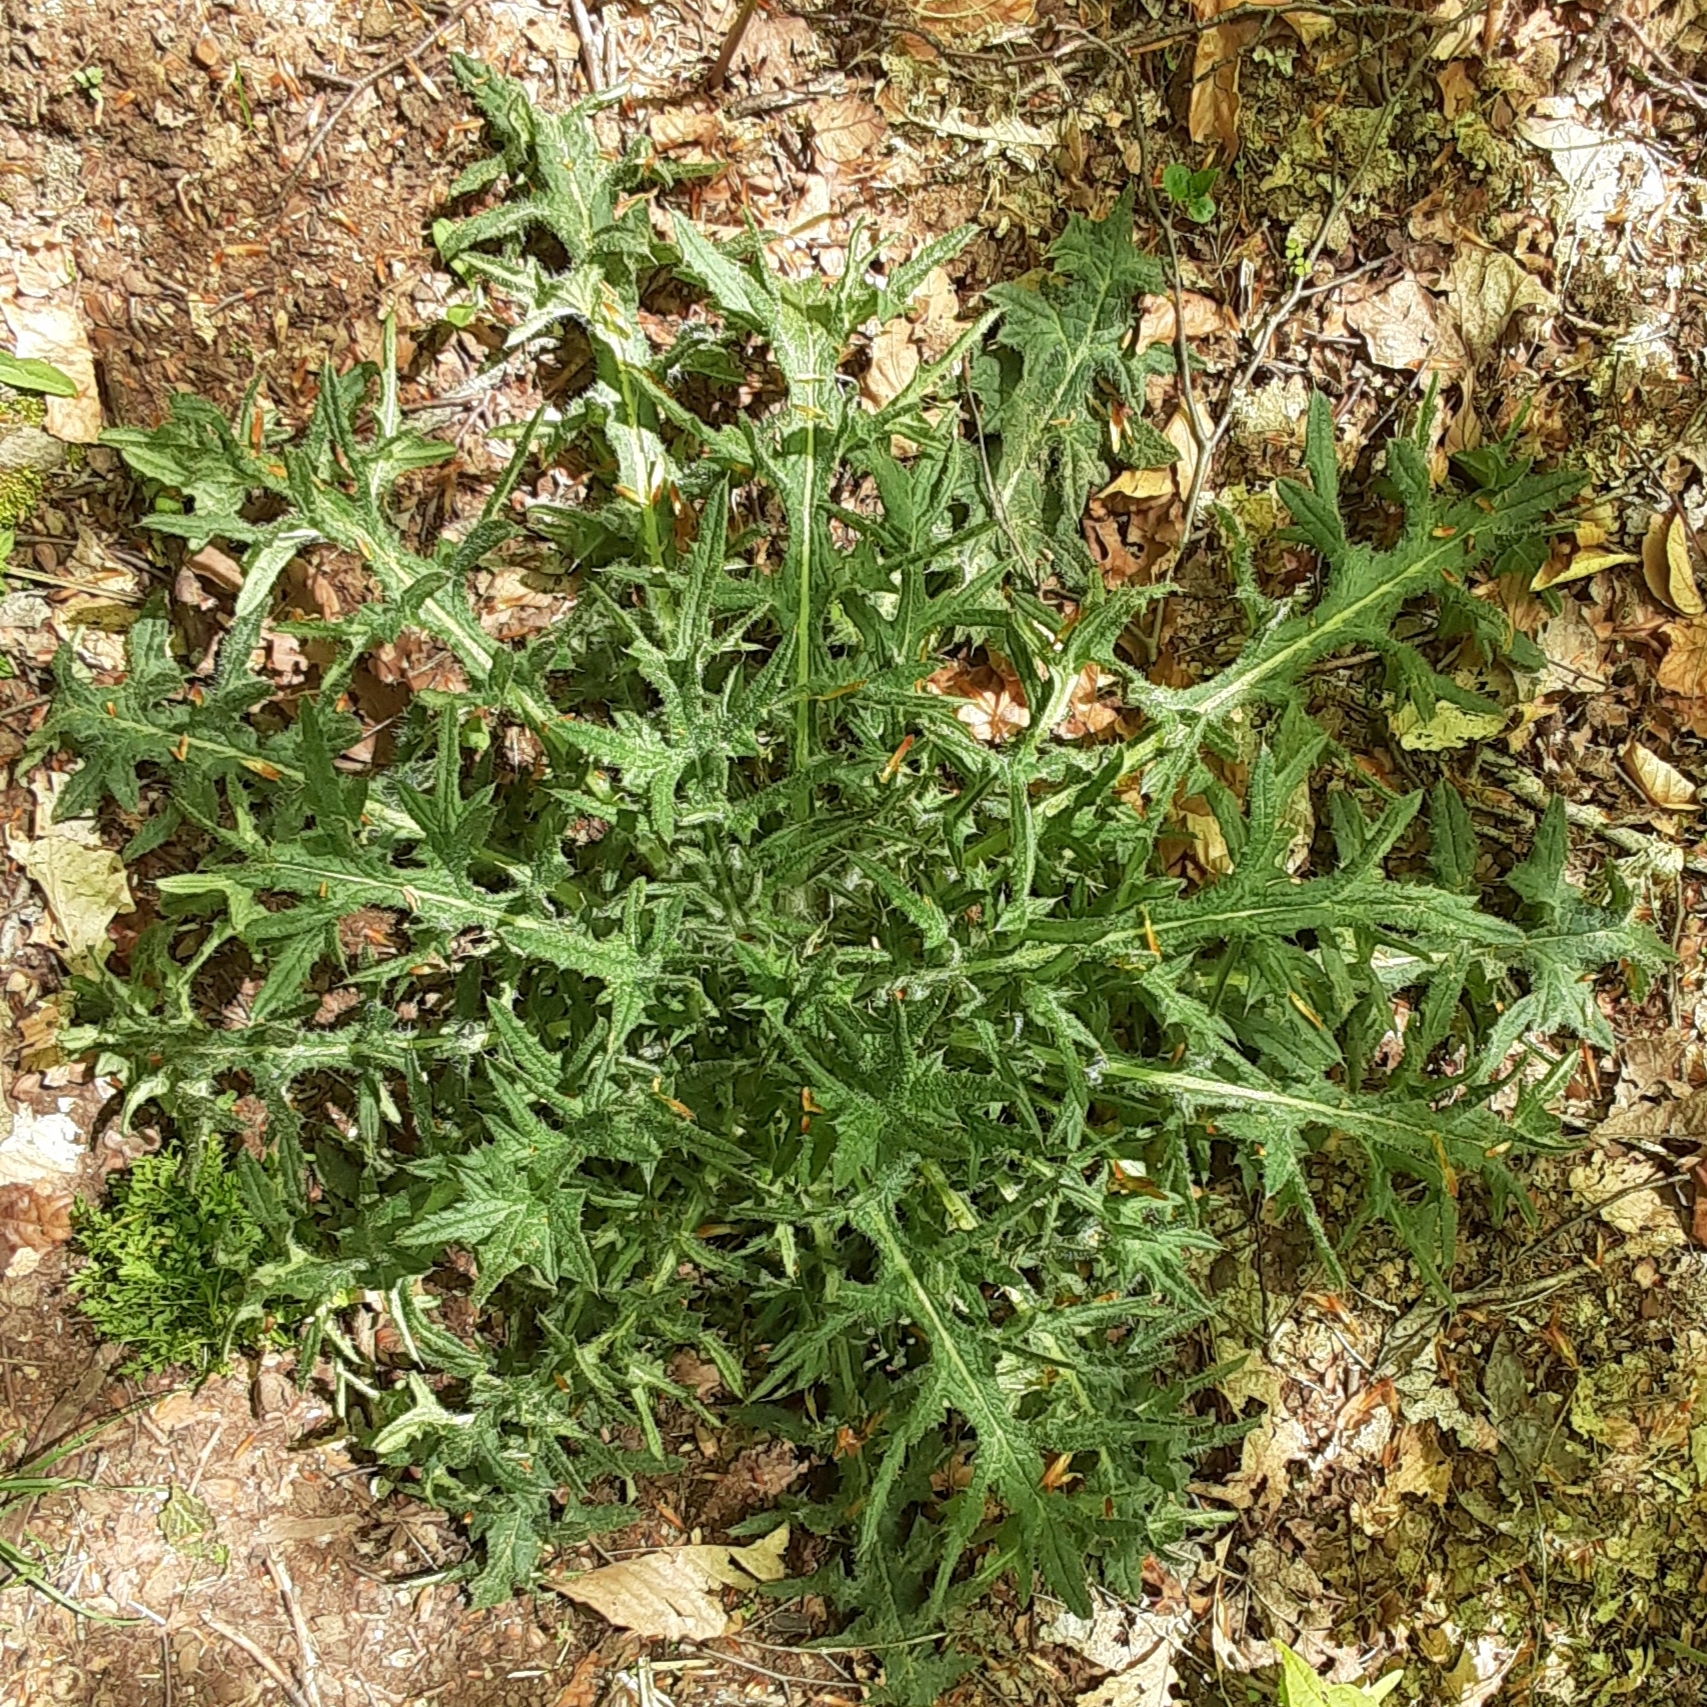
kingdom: Plantae
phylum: Tracheophyta
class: Magnoliopsida
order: Asterales
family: Asteraceae
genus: Cirsium
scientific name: Cirsium vulgare
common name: Bull thistle
